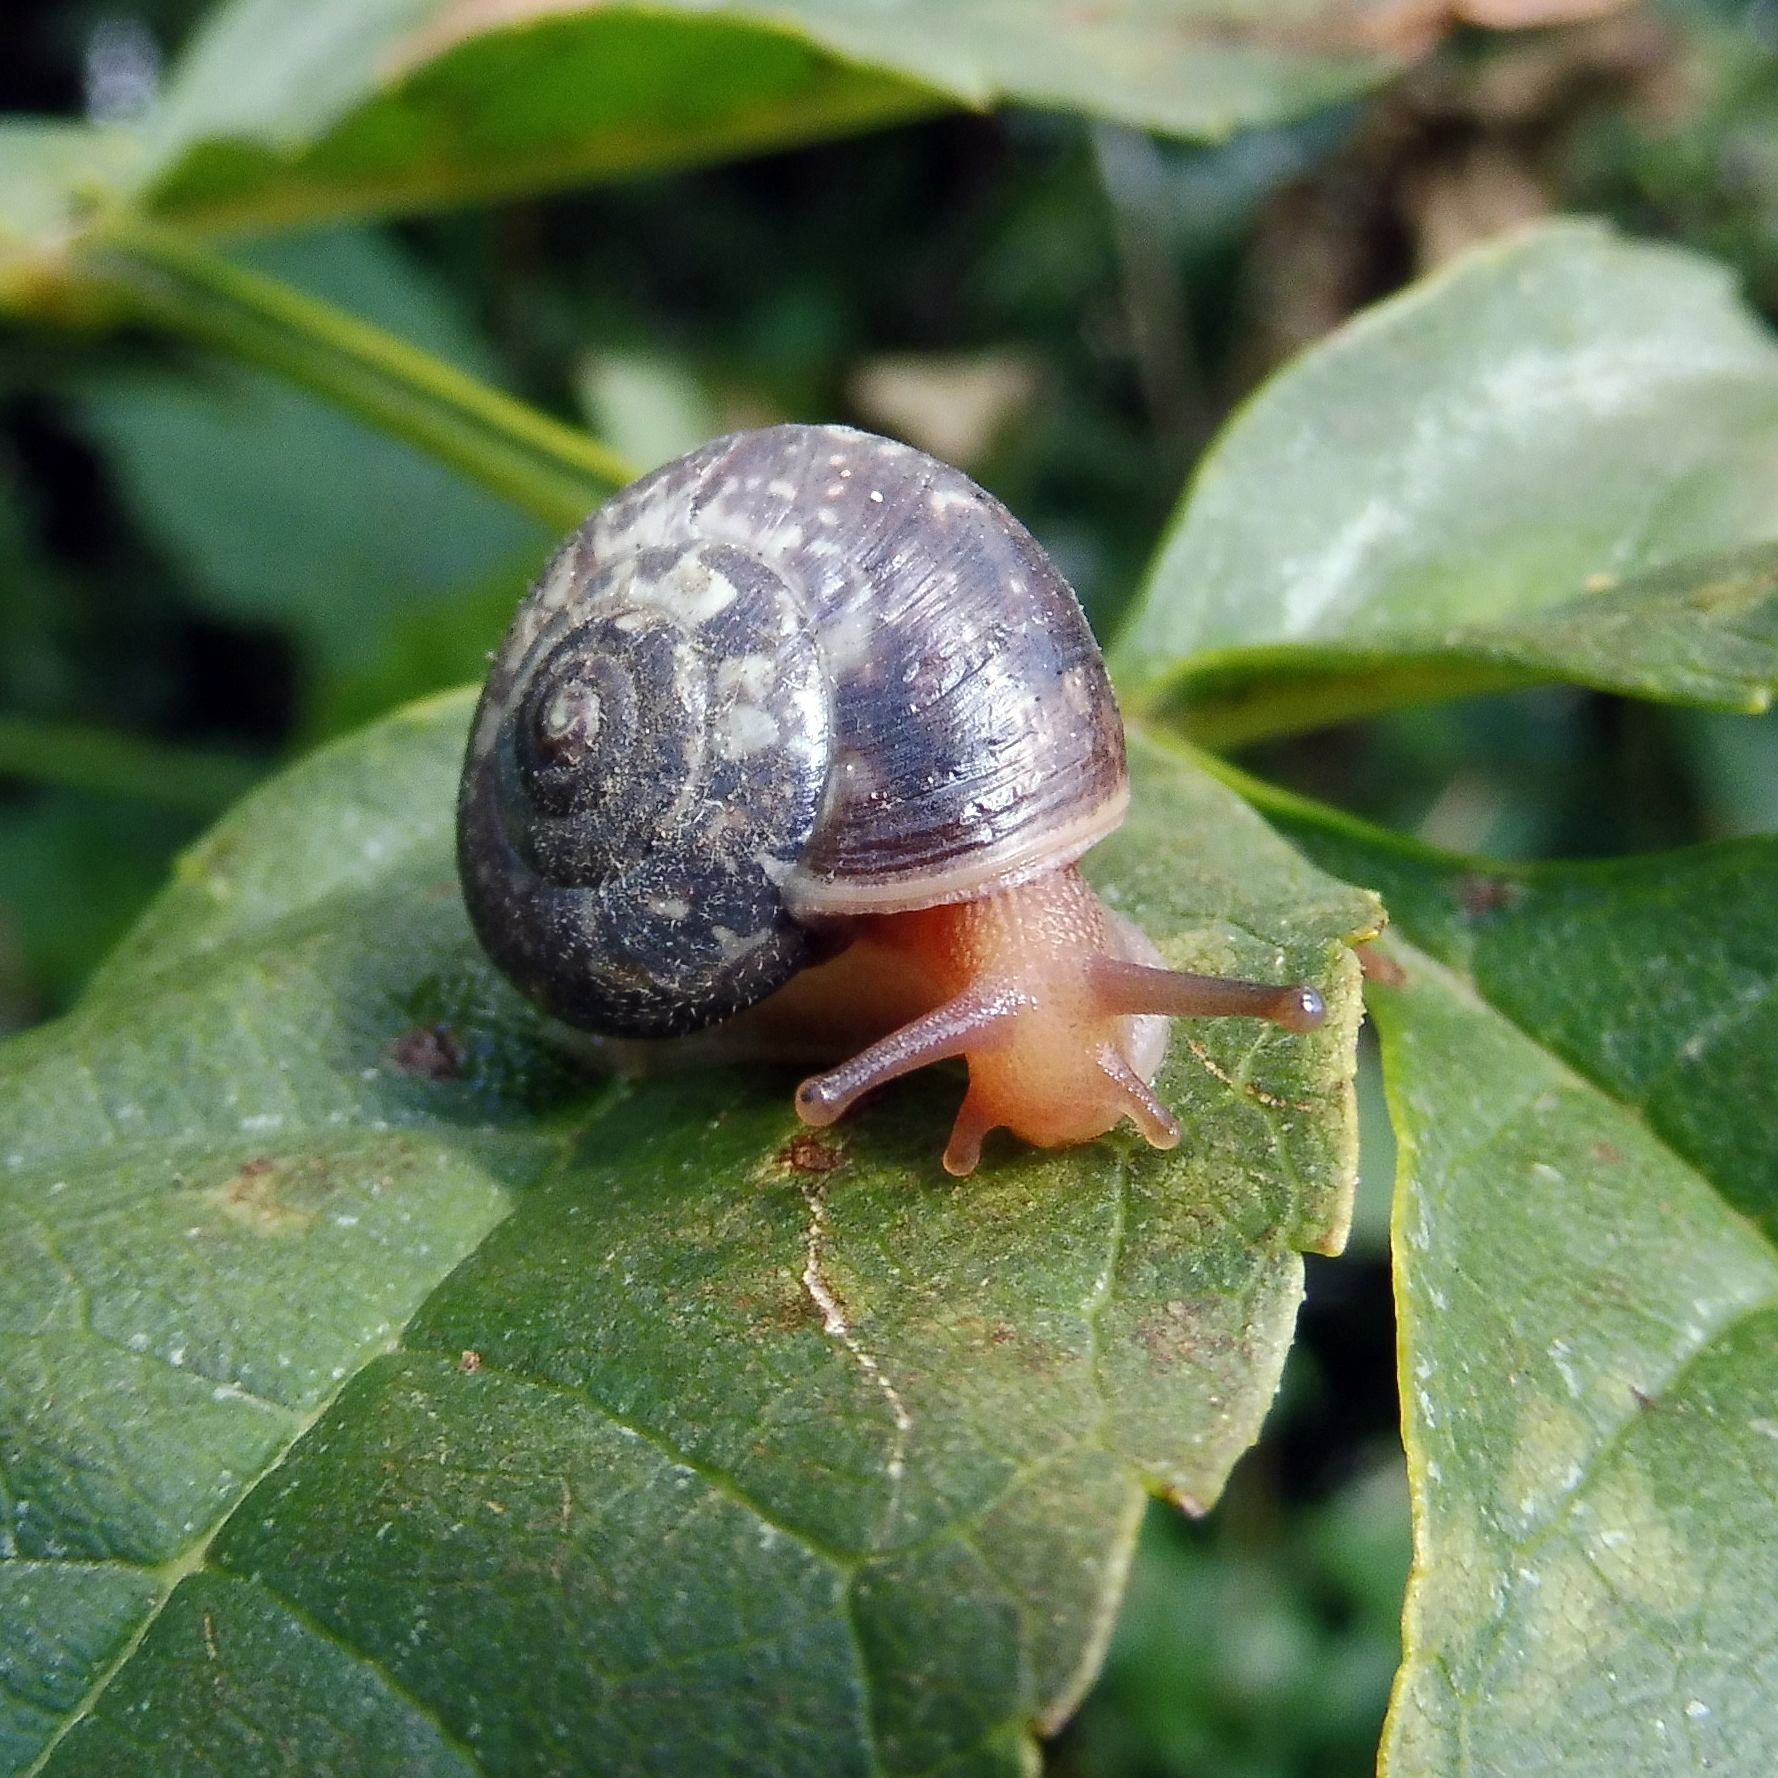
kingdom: Animalia
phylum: Mollusca
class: Gastropoda
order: Stylommatophora
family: Hygromiidae
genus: Monacha
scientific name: Monacha cantiana
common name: Kentish snail
